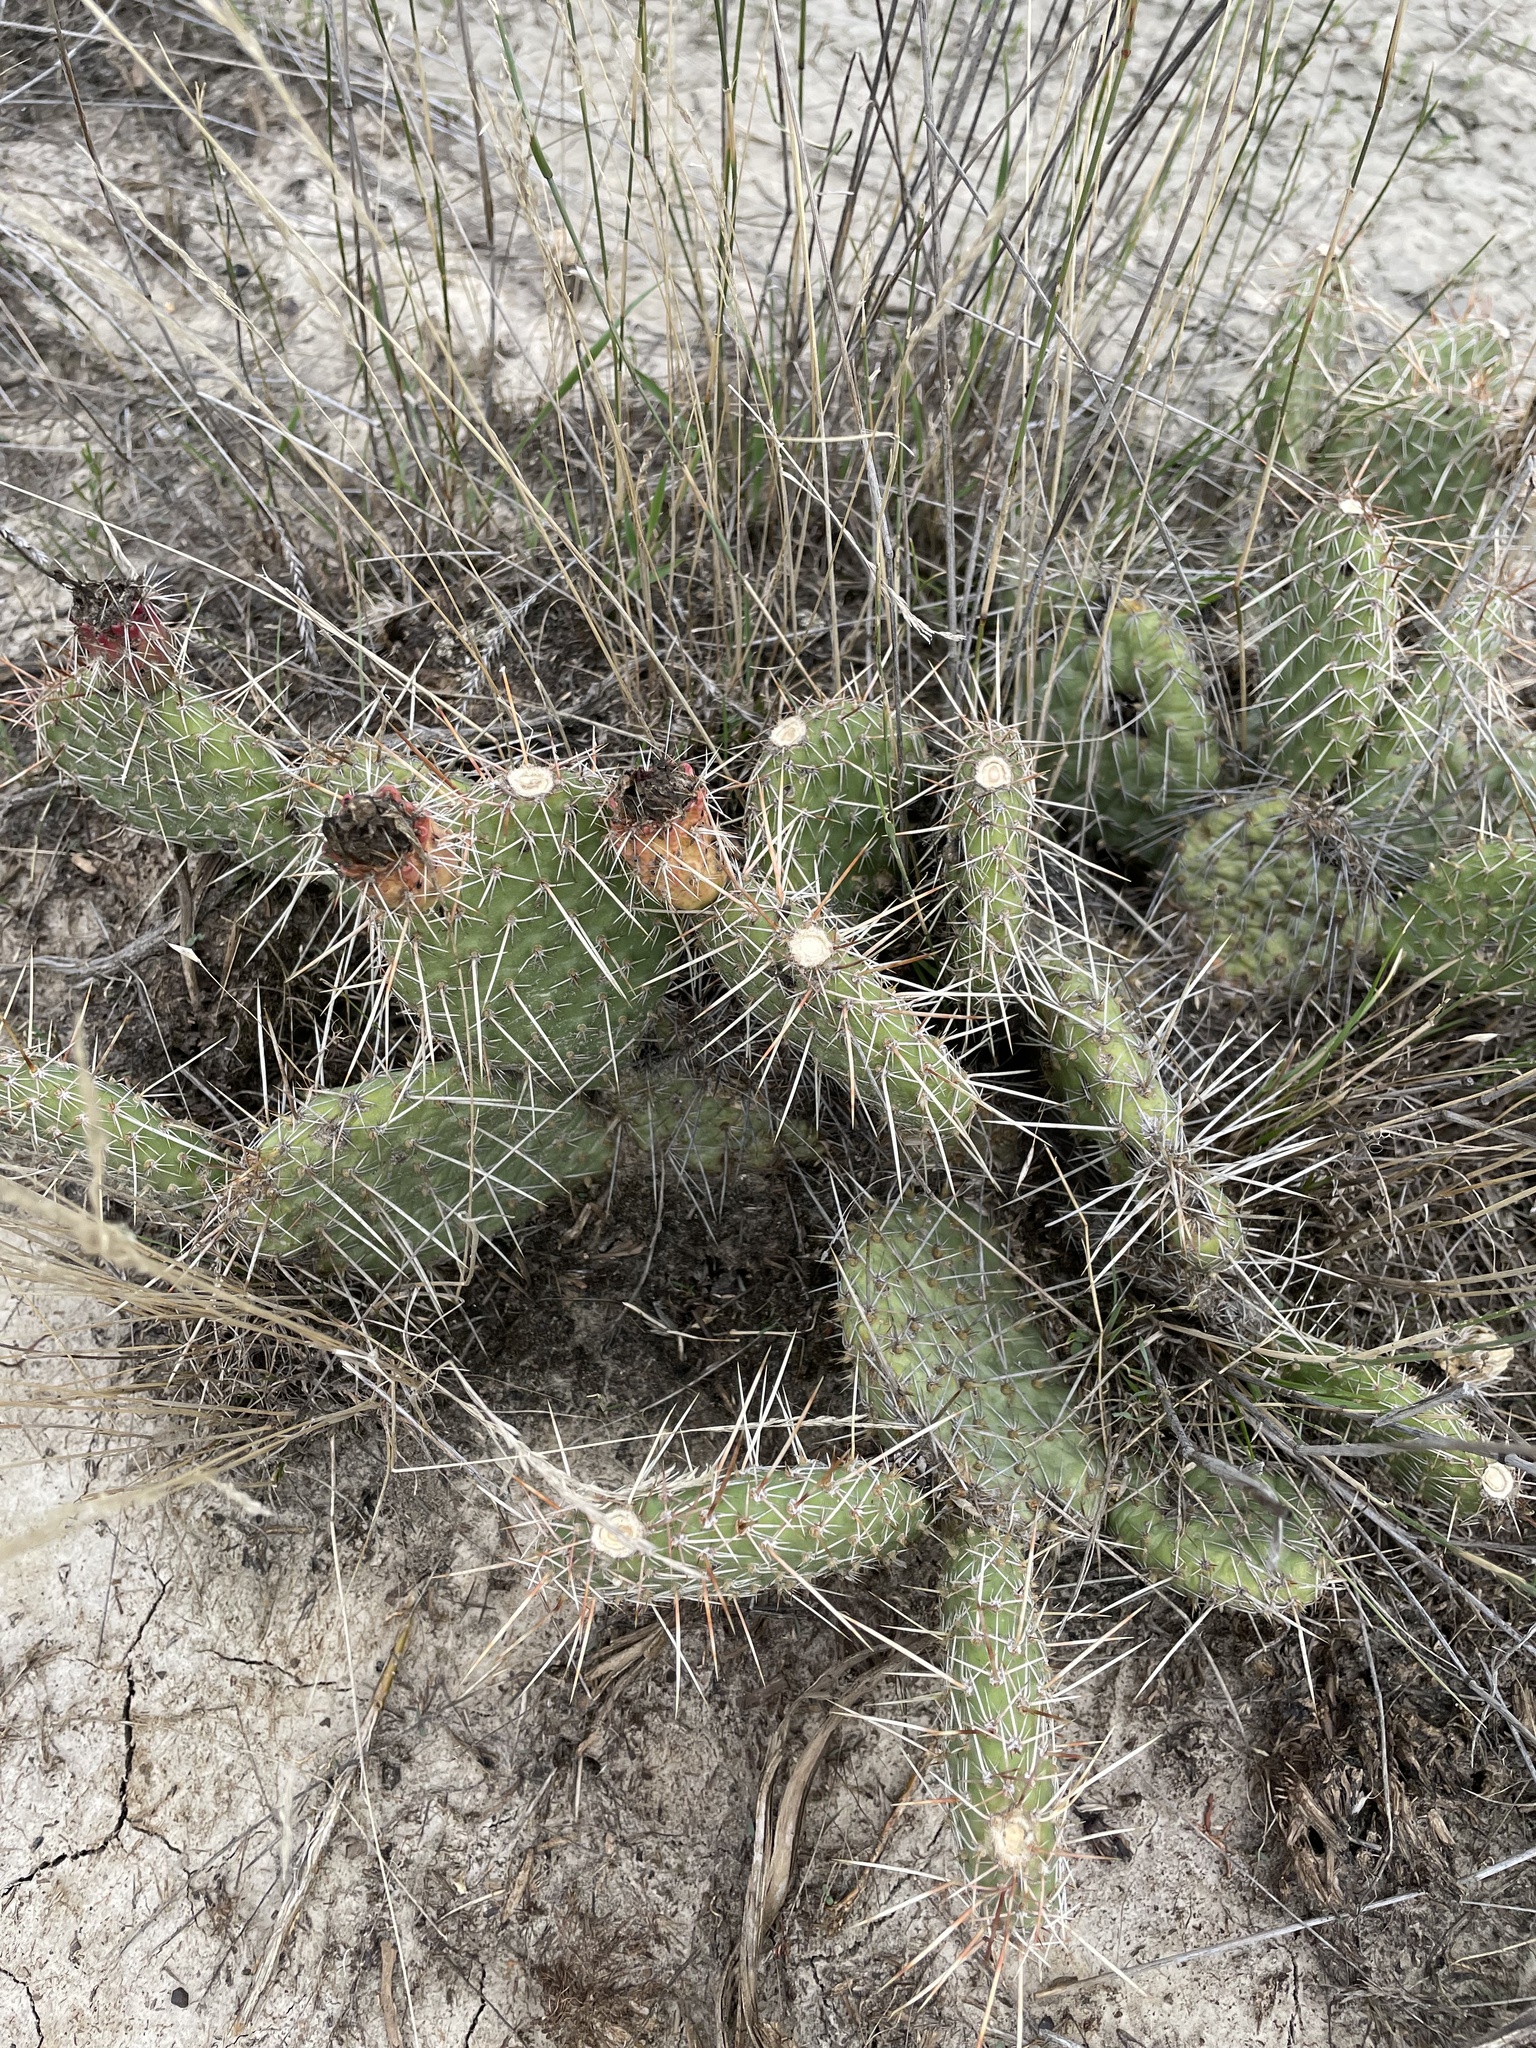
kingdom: Plantae
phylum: Tracheophyta
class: Magnoliopsida
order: Caryophyllales
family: Cactaceae
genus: Opuntia
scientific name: Opuntia polyacantha
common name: Plains prickly-pear
